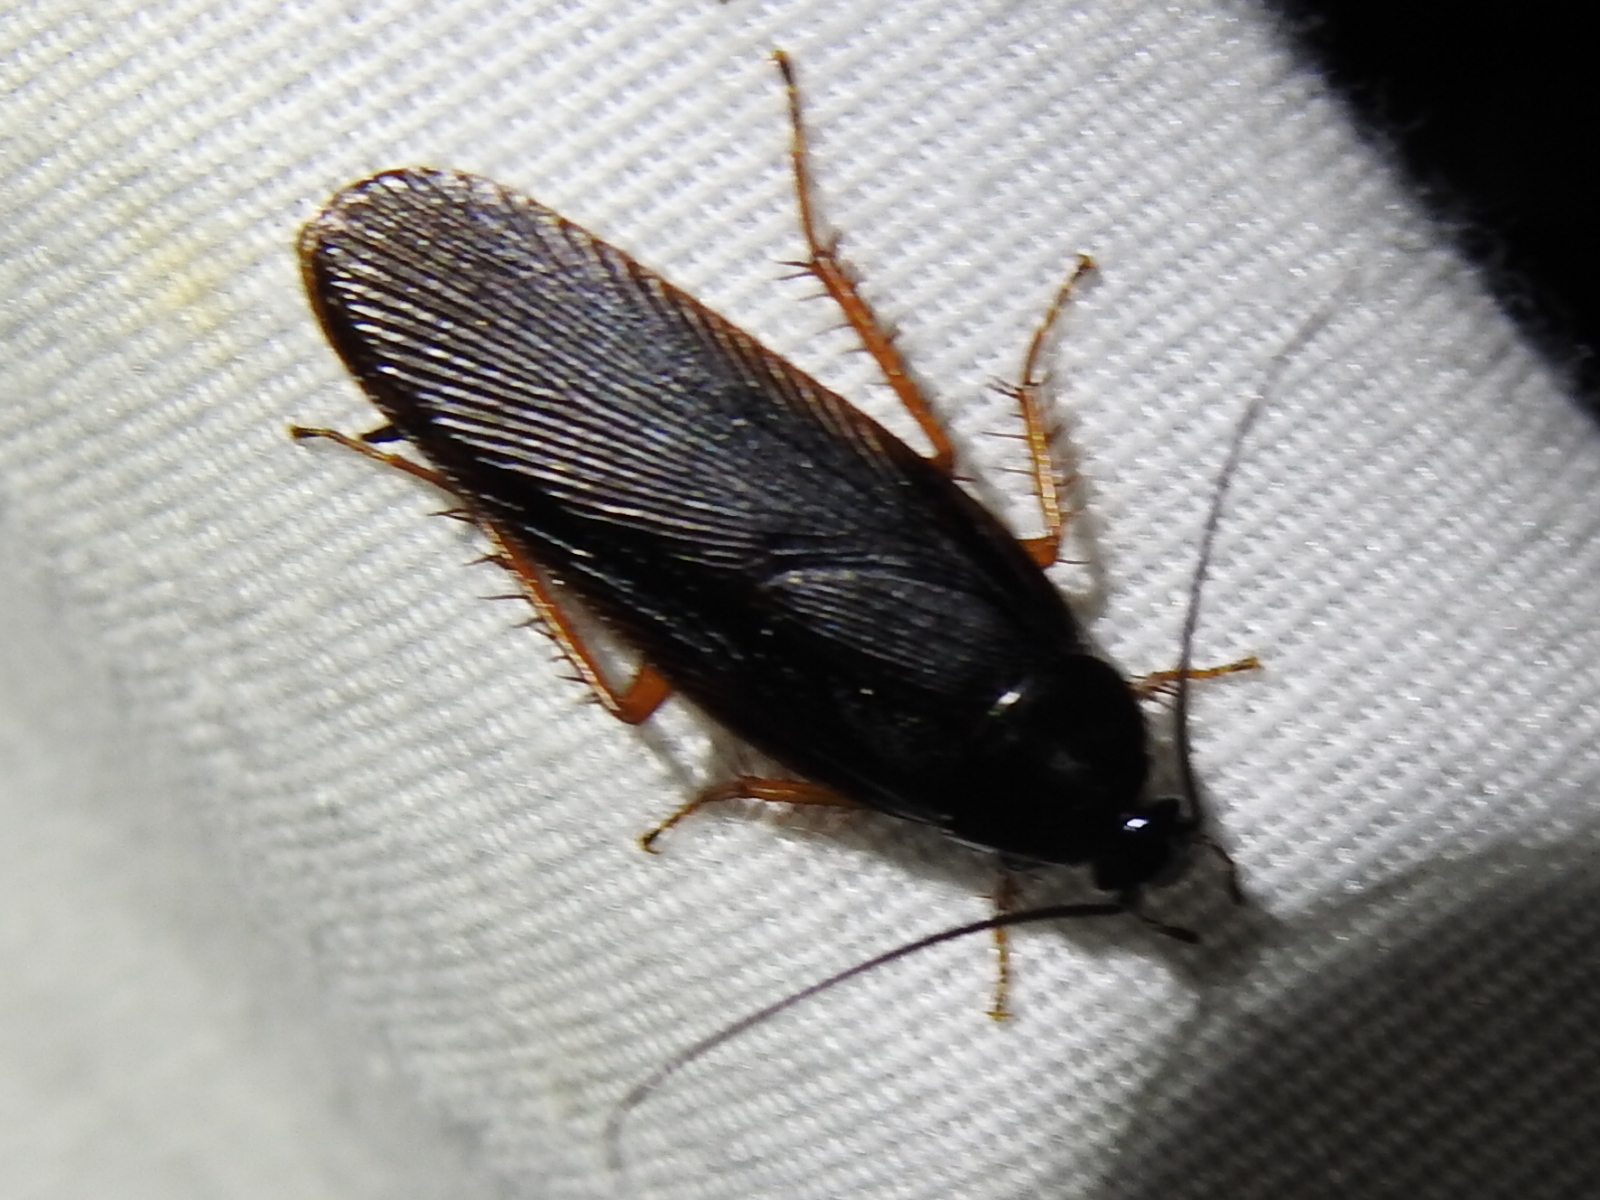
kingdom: Animalia
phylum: Arthropoda
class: Insecta
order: Blattodea
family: Ectobiidae
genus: Ischnoptera
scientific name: Ischnoptera deropeltiformis
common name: Dark wood cockroach
